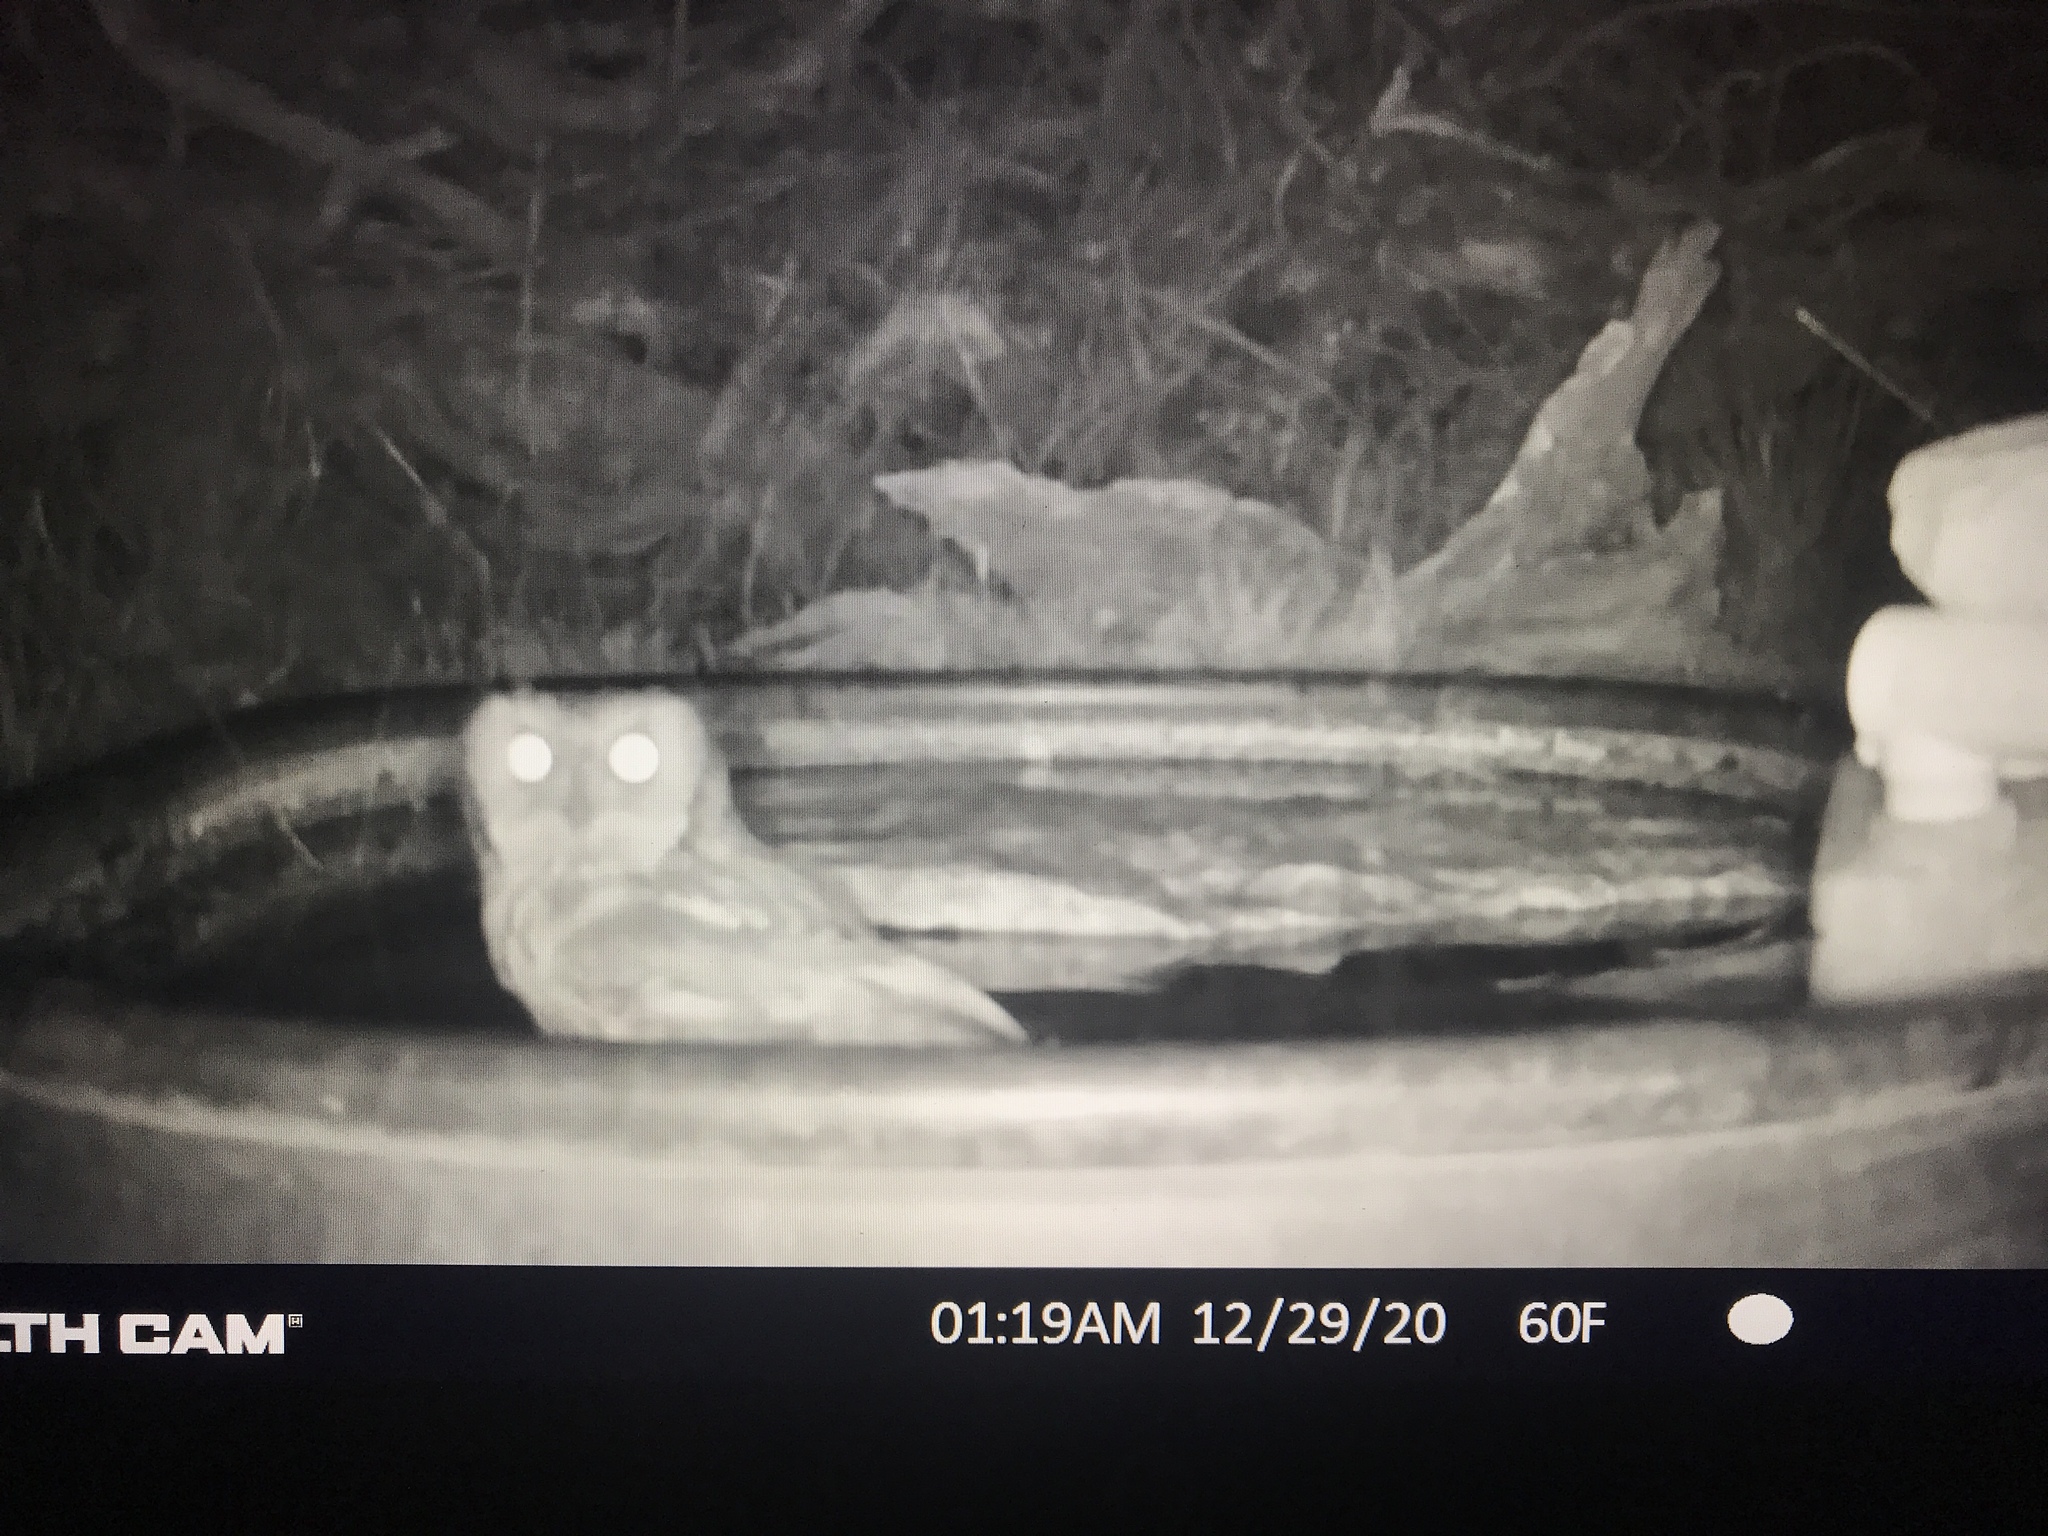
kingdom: Animalia
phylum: Chordata
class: Aves
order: Strigiformes
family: Strigidae
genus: Megascops
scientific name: Megascops asio
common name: Eastern screech-owl
